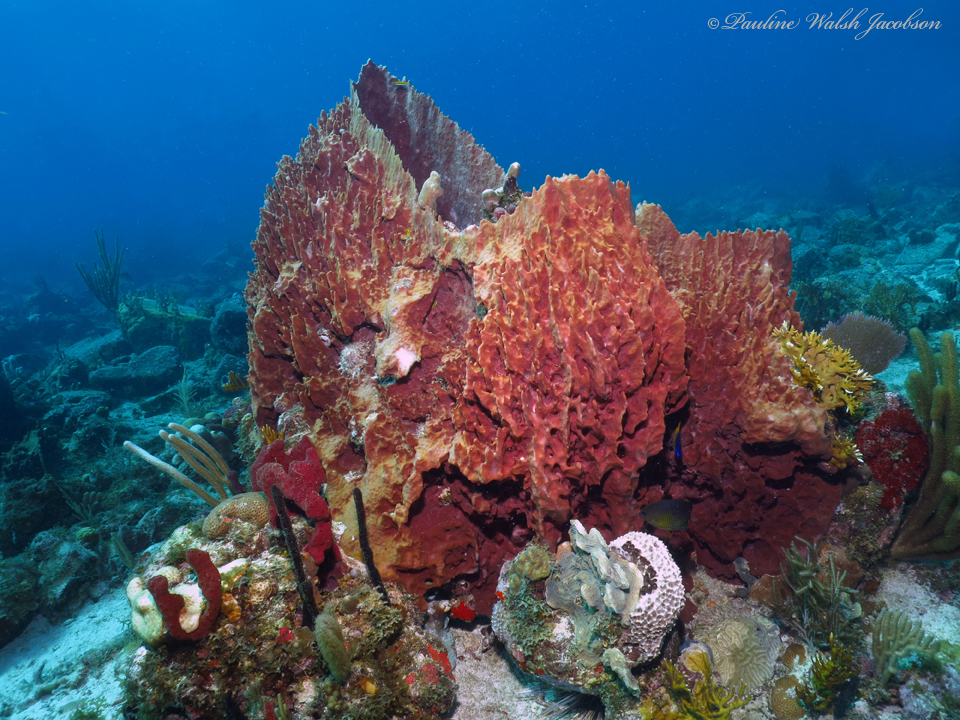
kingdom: Animalia
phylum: Porifera
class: Demospongiae
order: Haplosclerida
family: Petrosiidae
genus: Xestospongia
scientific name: Xestospongia muta
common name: Giant barrel sponge
